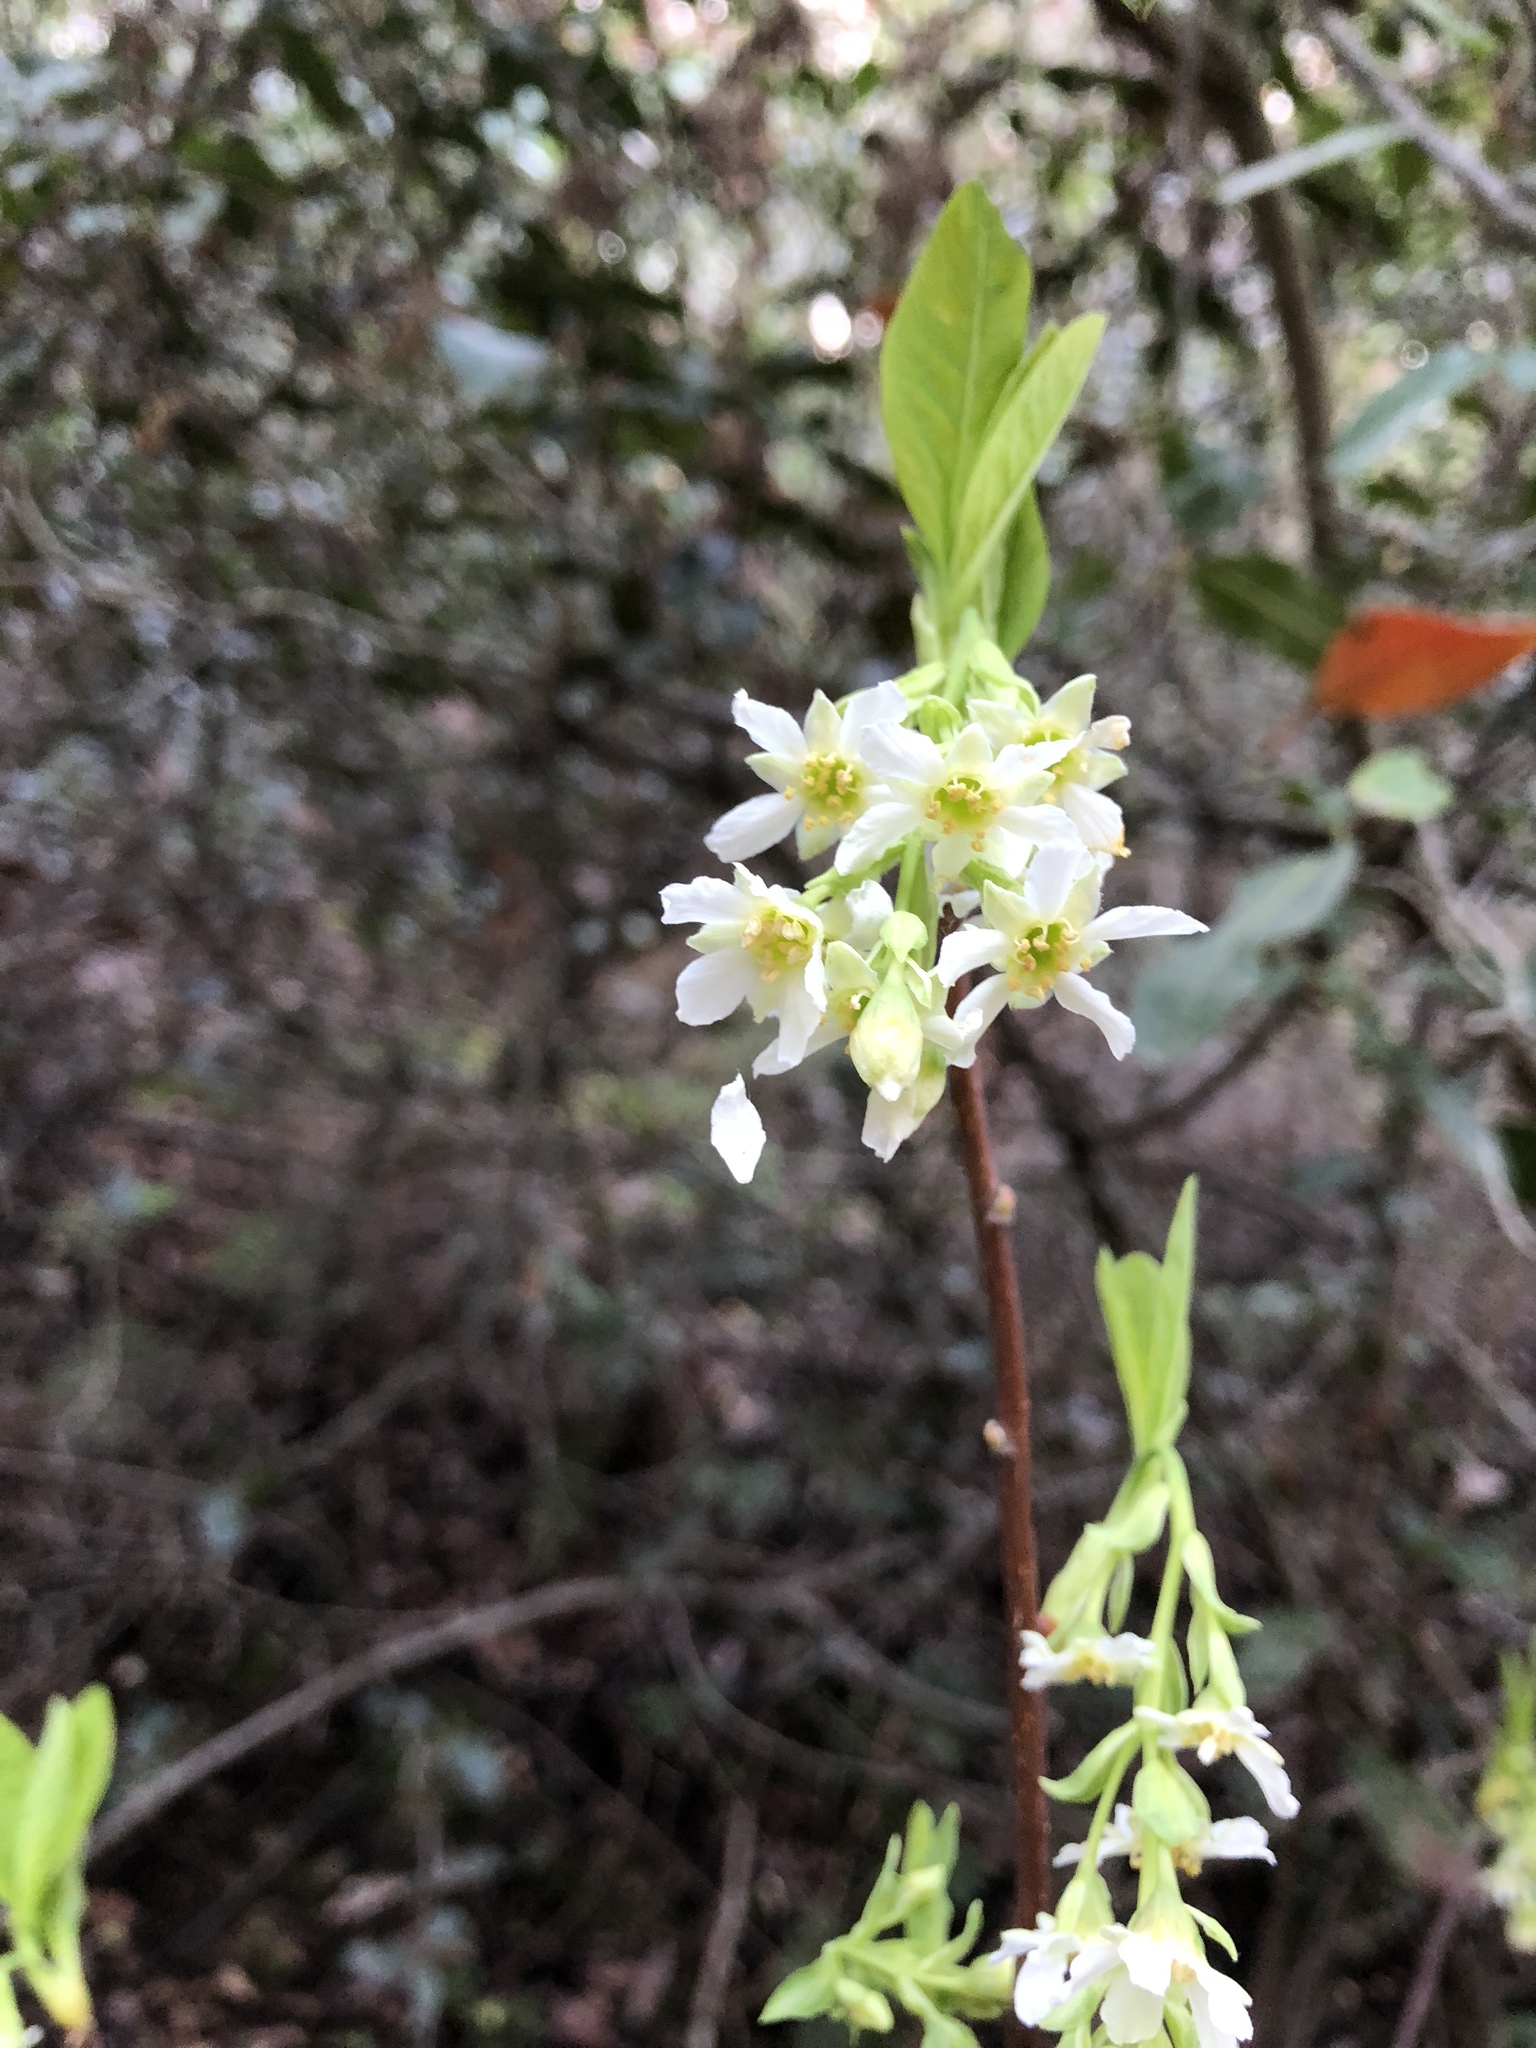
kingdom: Plantae
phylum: Tracheophyta
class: Magnoliopsida
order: Rosales
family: Rosaceae
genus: Oemleria
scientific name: Oemleria cerasiformis
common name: Osoberry
